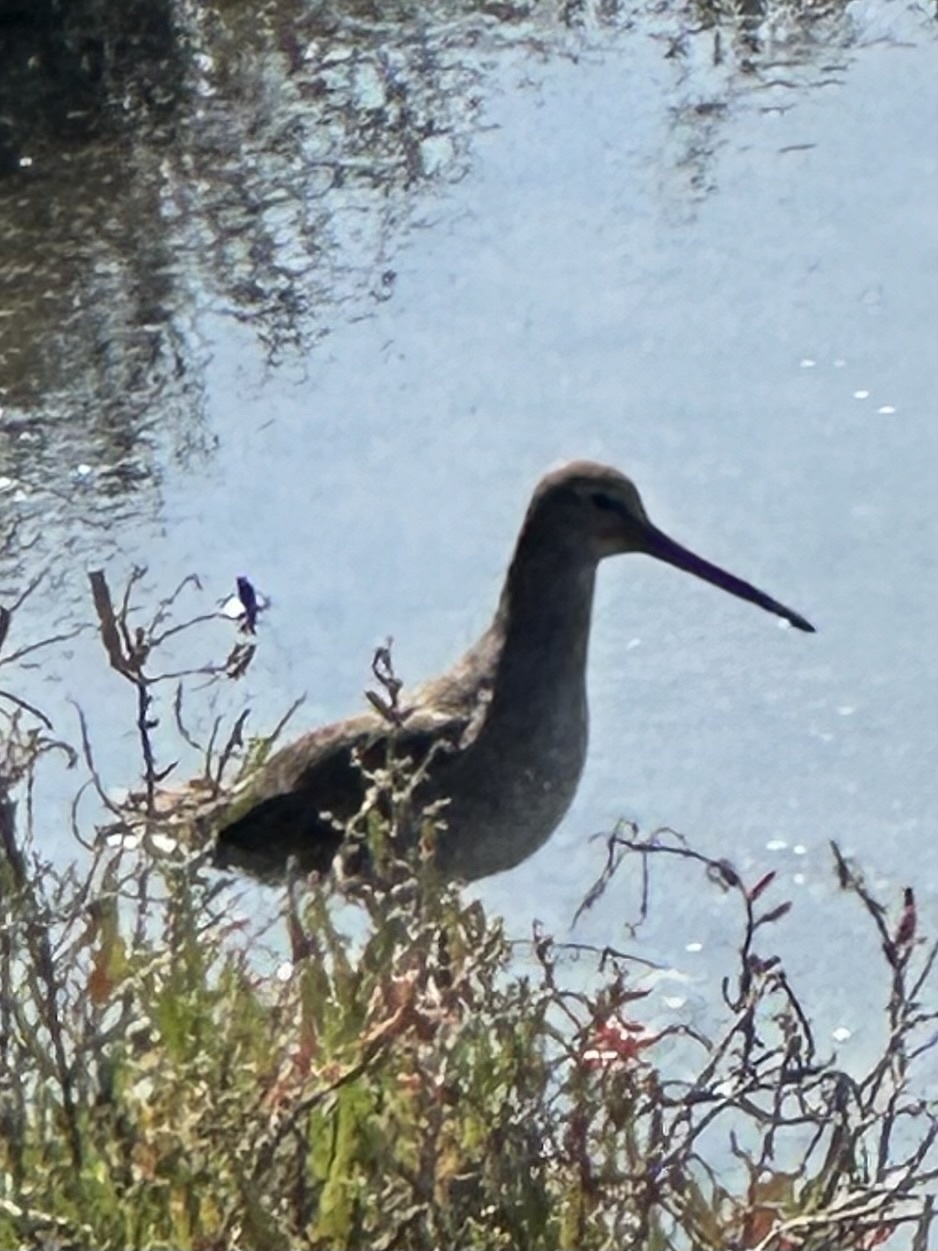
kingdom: Animalia
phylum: Chordata
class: Aves
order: Charadriiformes
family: Scolopacidae
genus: Tringa
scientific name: Tringa semipalmata
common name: Willet
